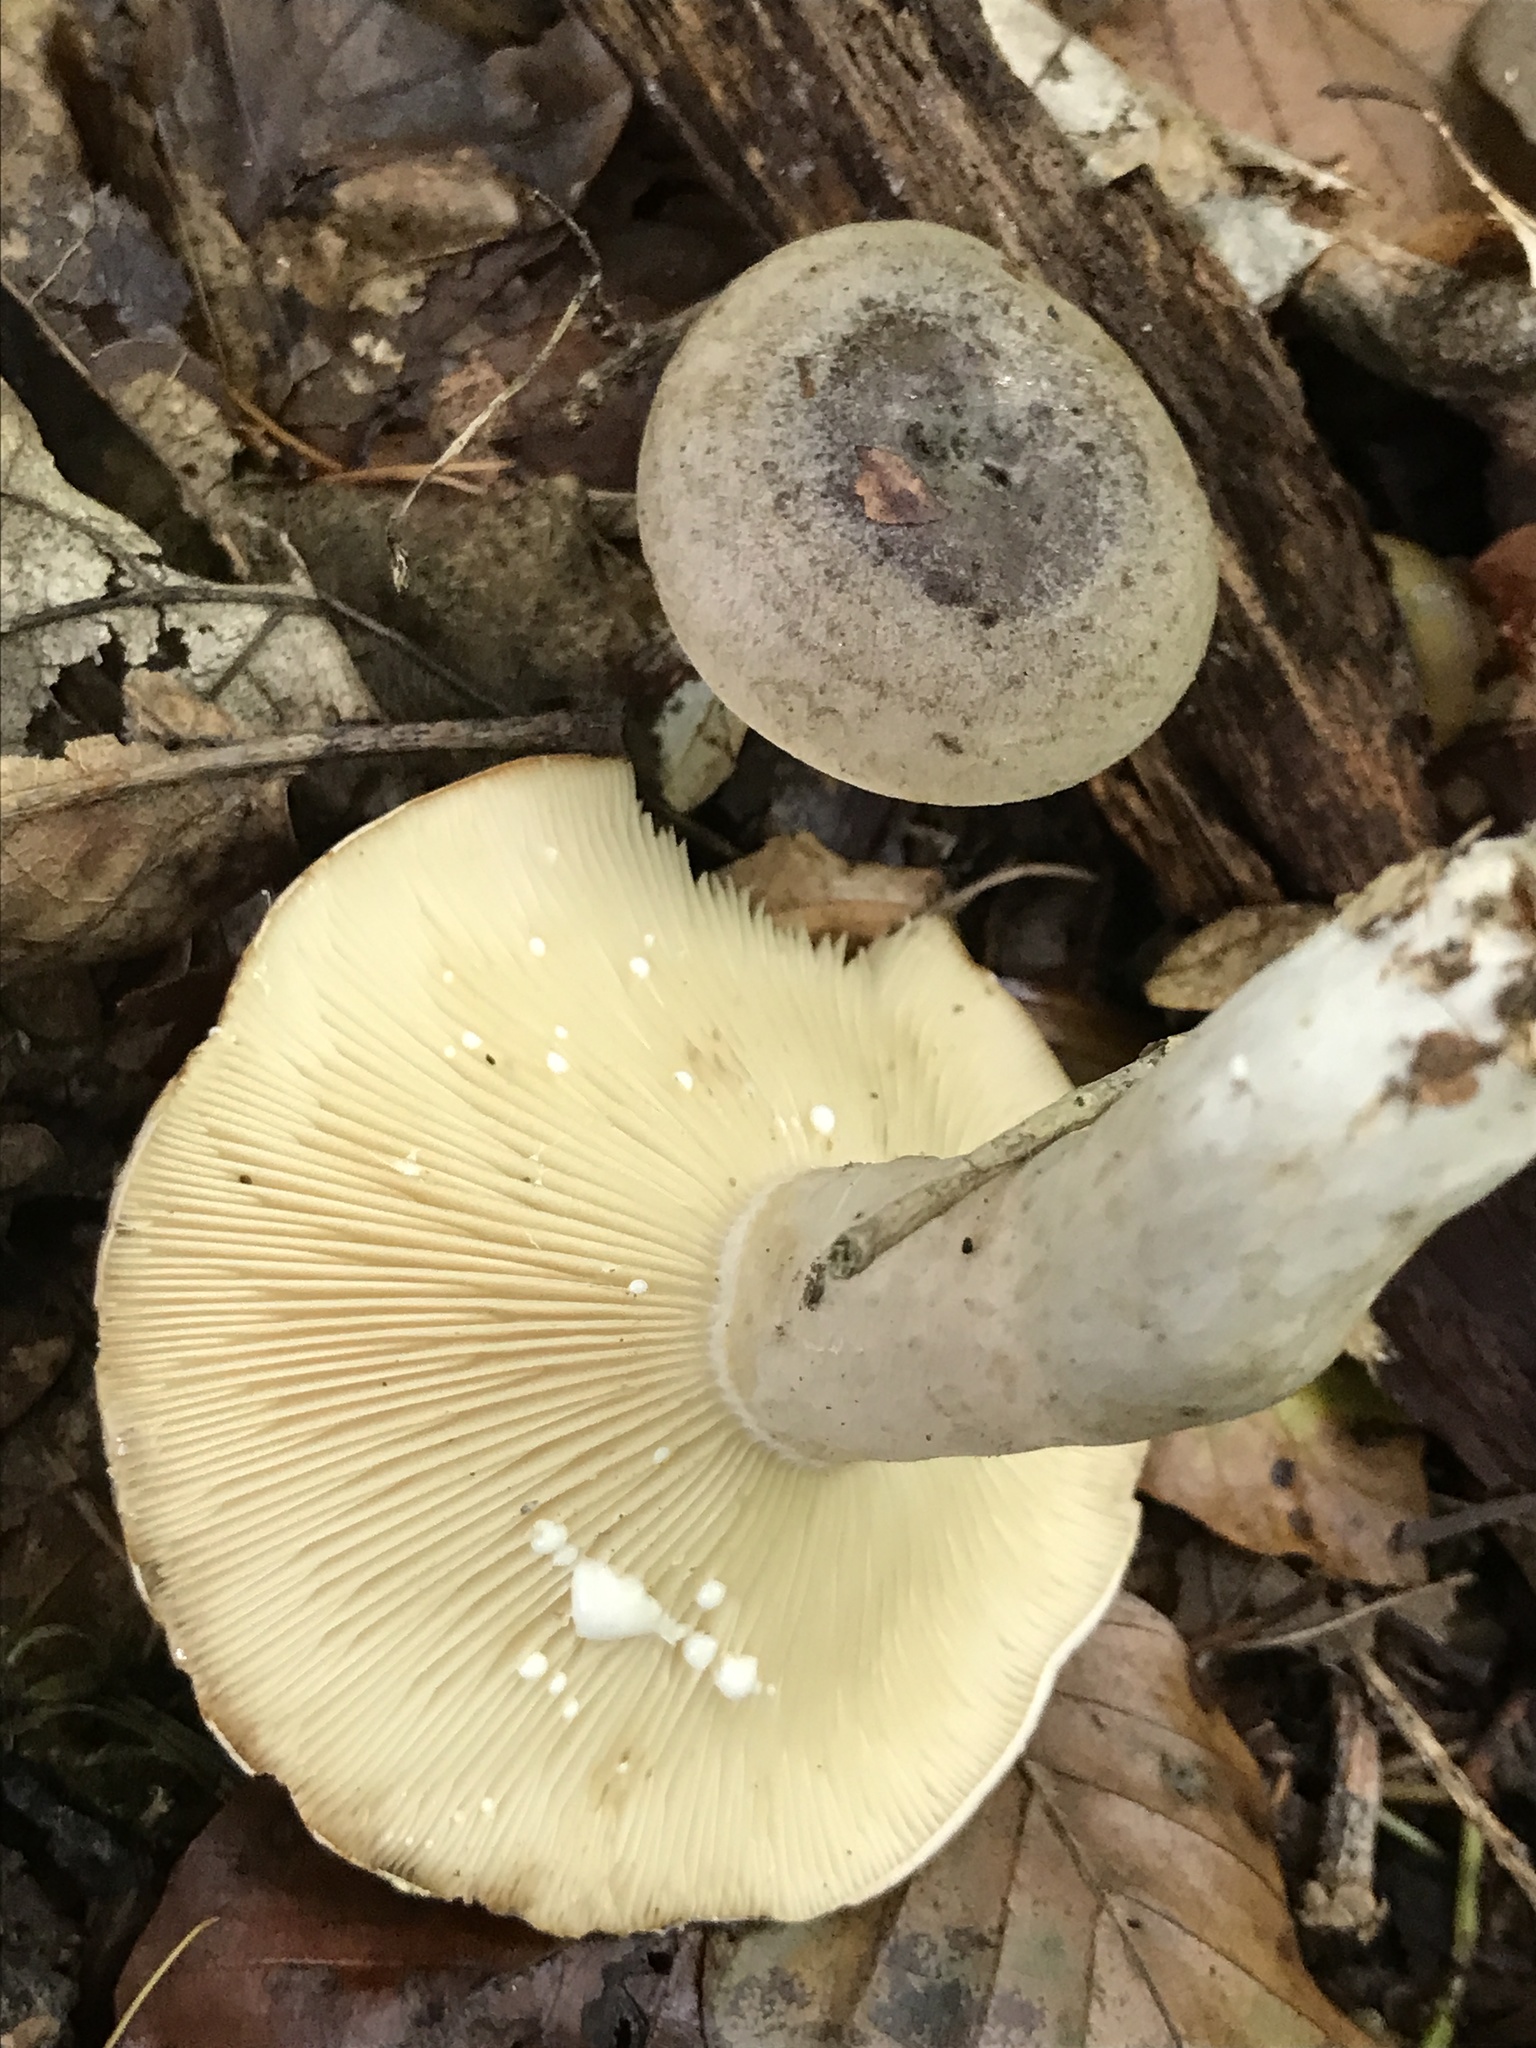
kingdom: Fungi
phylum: Basidiomycota
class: Agaricomycetes
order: Russulales
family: Russulaceae
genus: Lactarius
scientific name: Lactarius circellatus
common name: Circled milkcap
